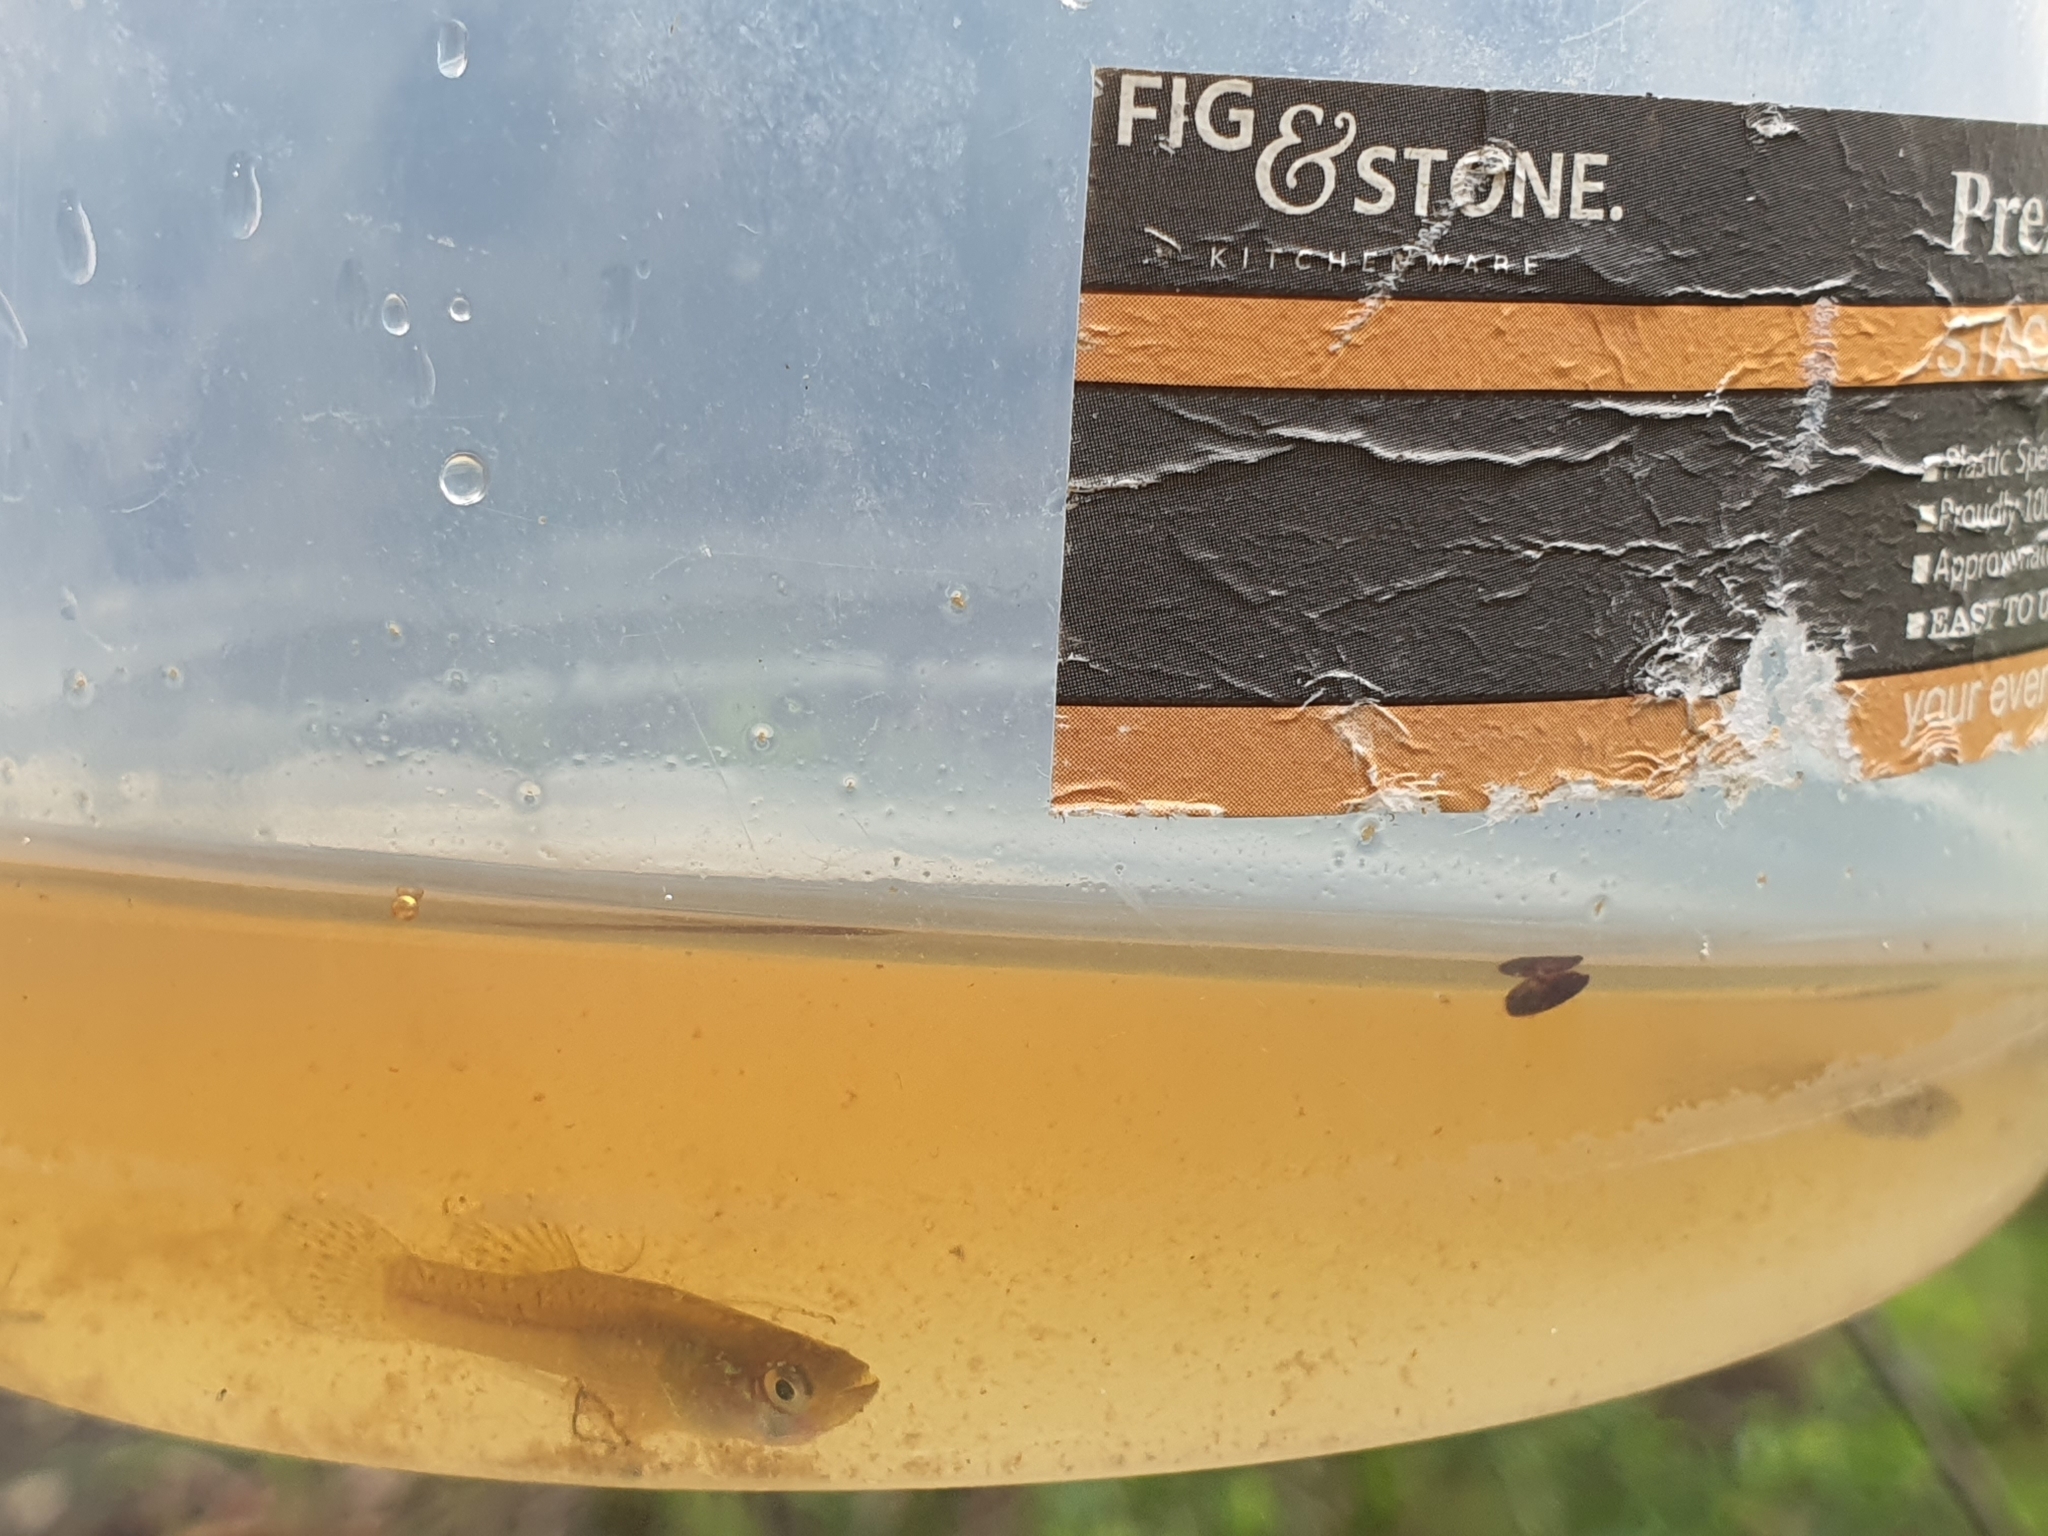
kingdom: Animalia
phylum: Chordata
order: Cyprinodontiformes
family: Poeciliidae
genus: Gambusia
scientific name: Gambusia holbrooki
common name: Eastern mosquitofish
